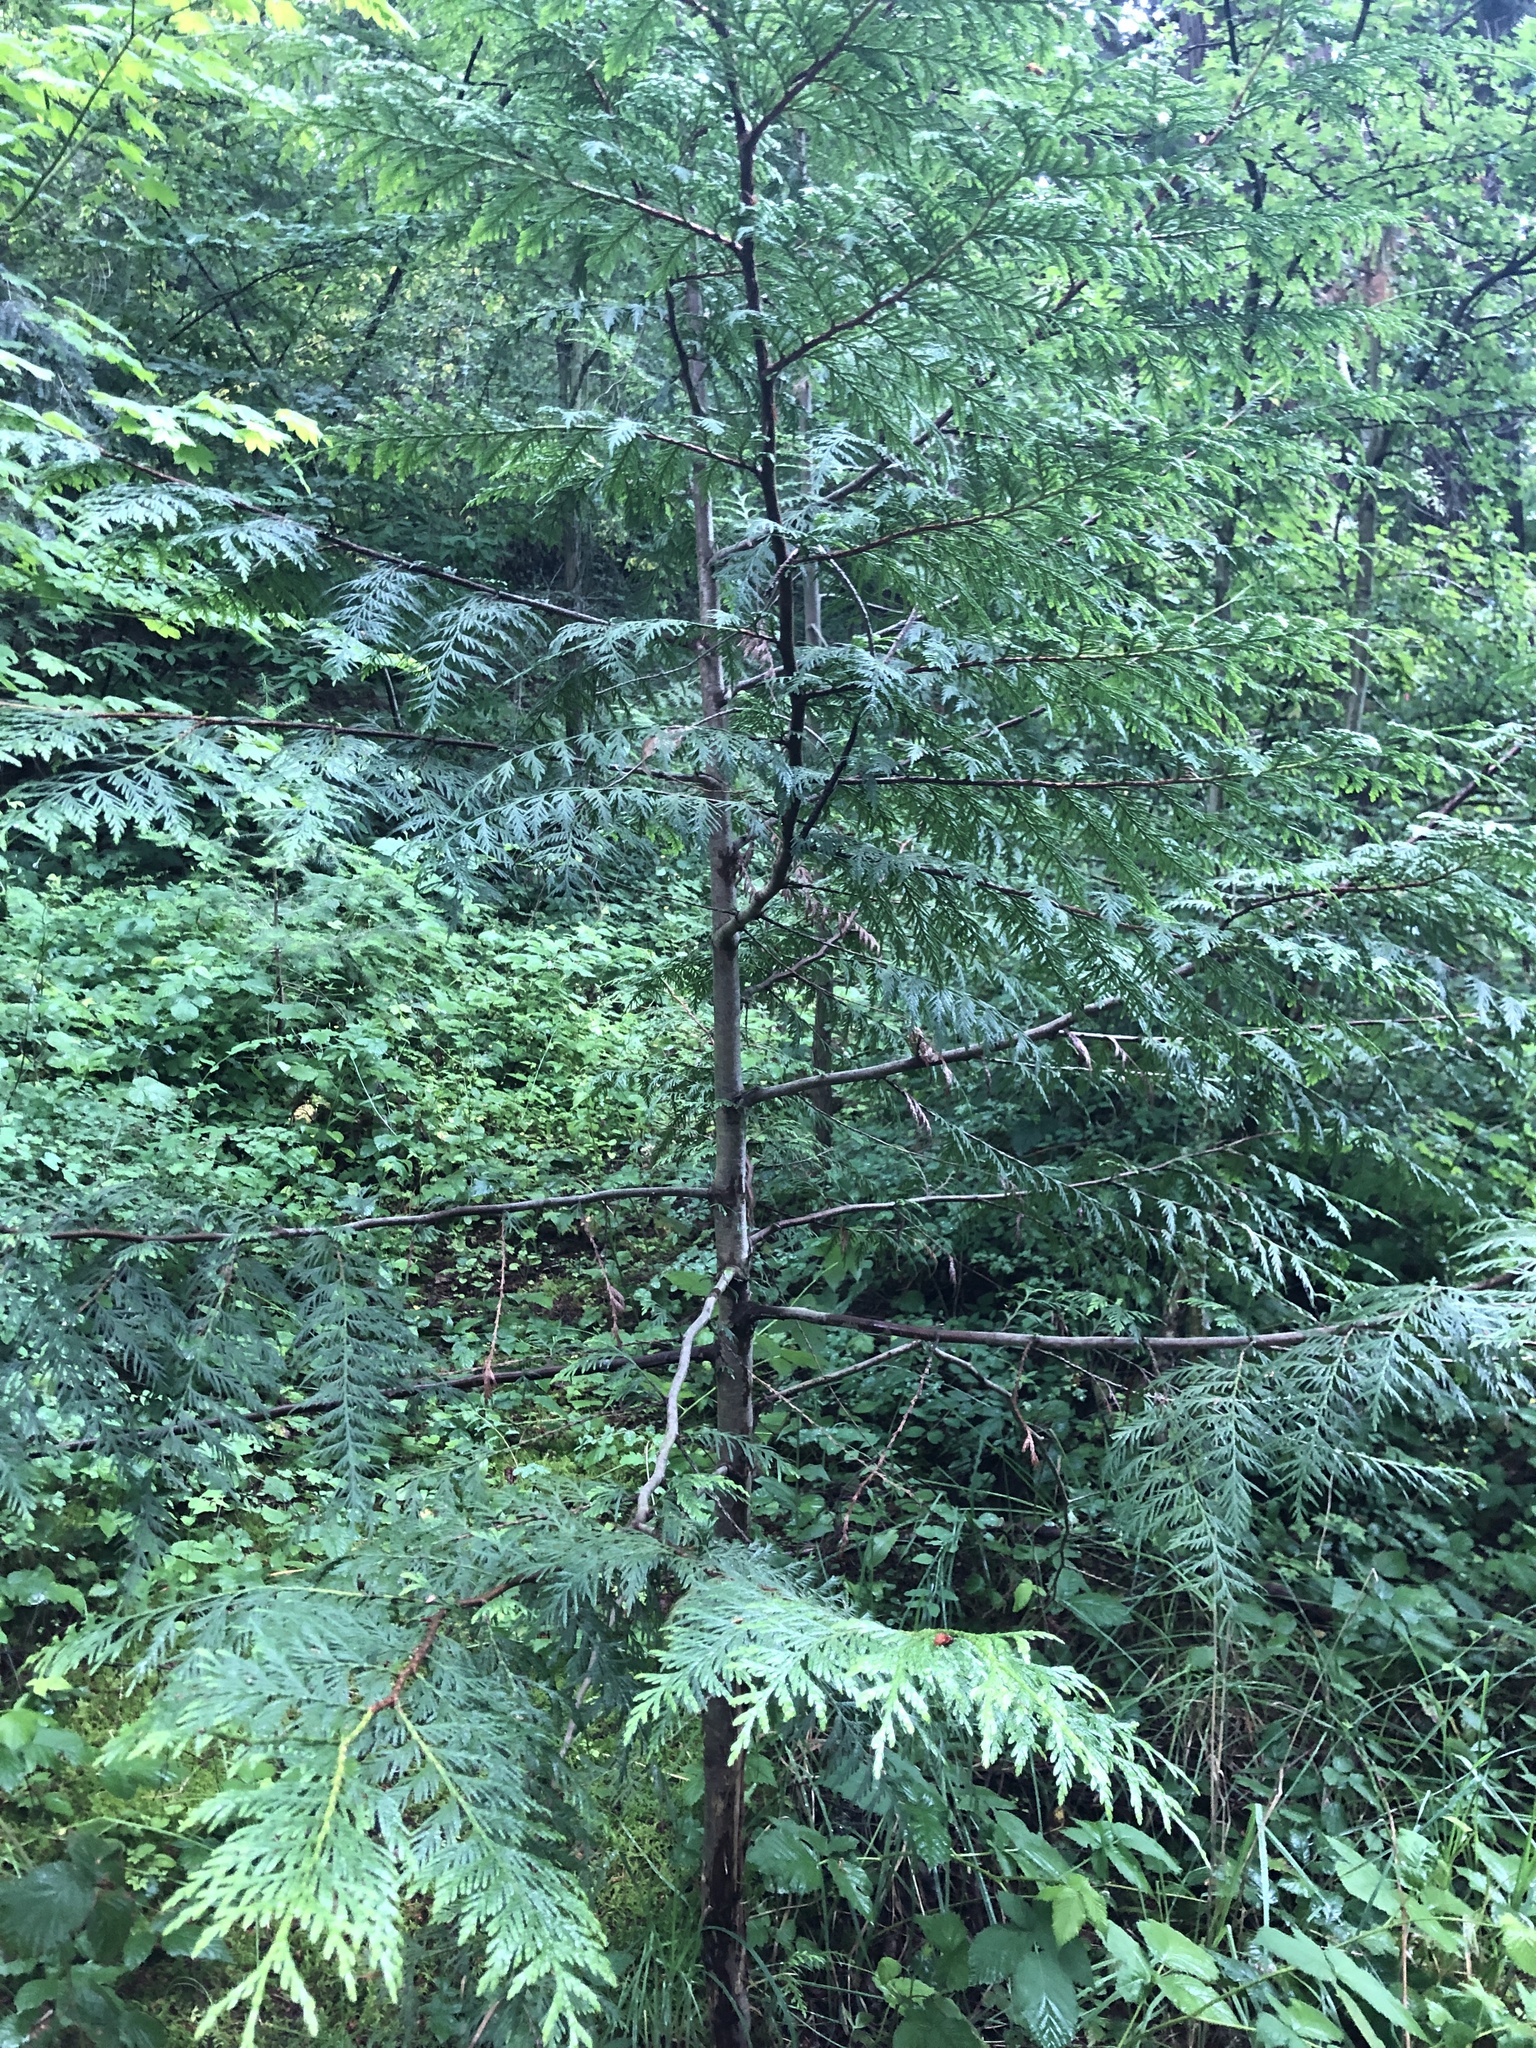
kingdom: Plantae
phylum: Tracheophyta
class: Pinopsida
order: Pinales
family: Cupressaceae
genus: Thuja
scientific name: Thuja plicata
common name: Western red-cedar
